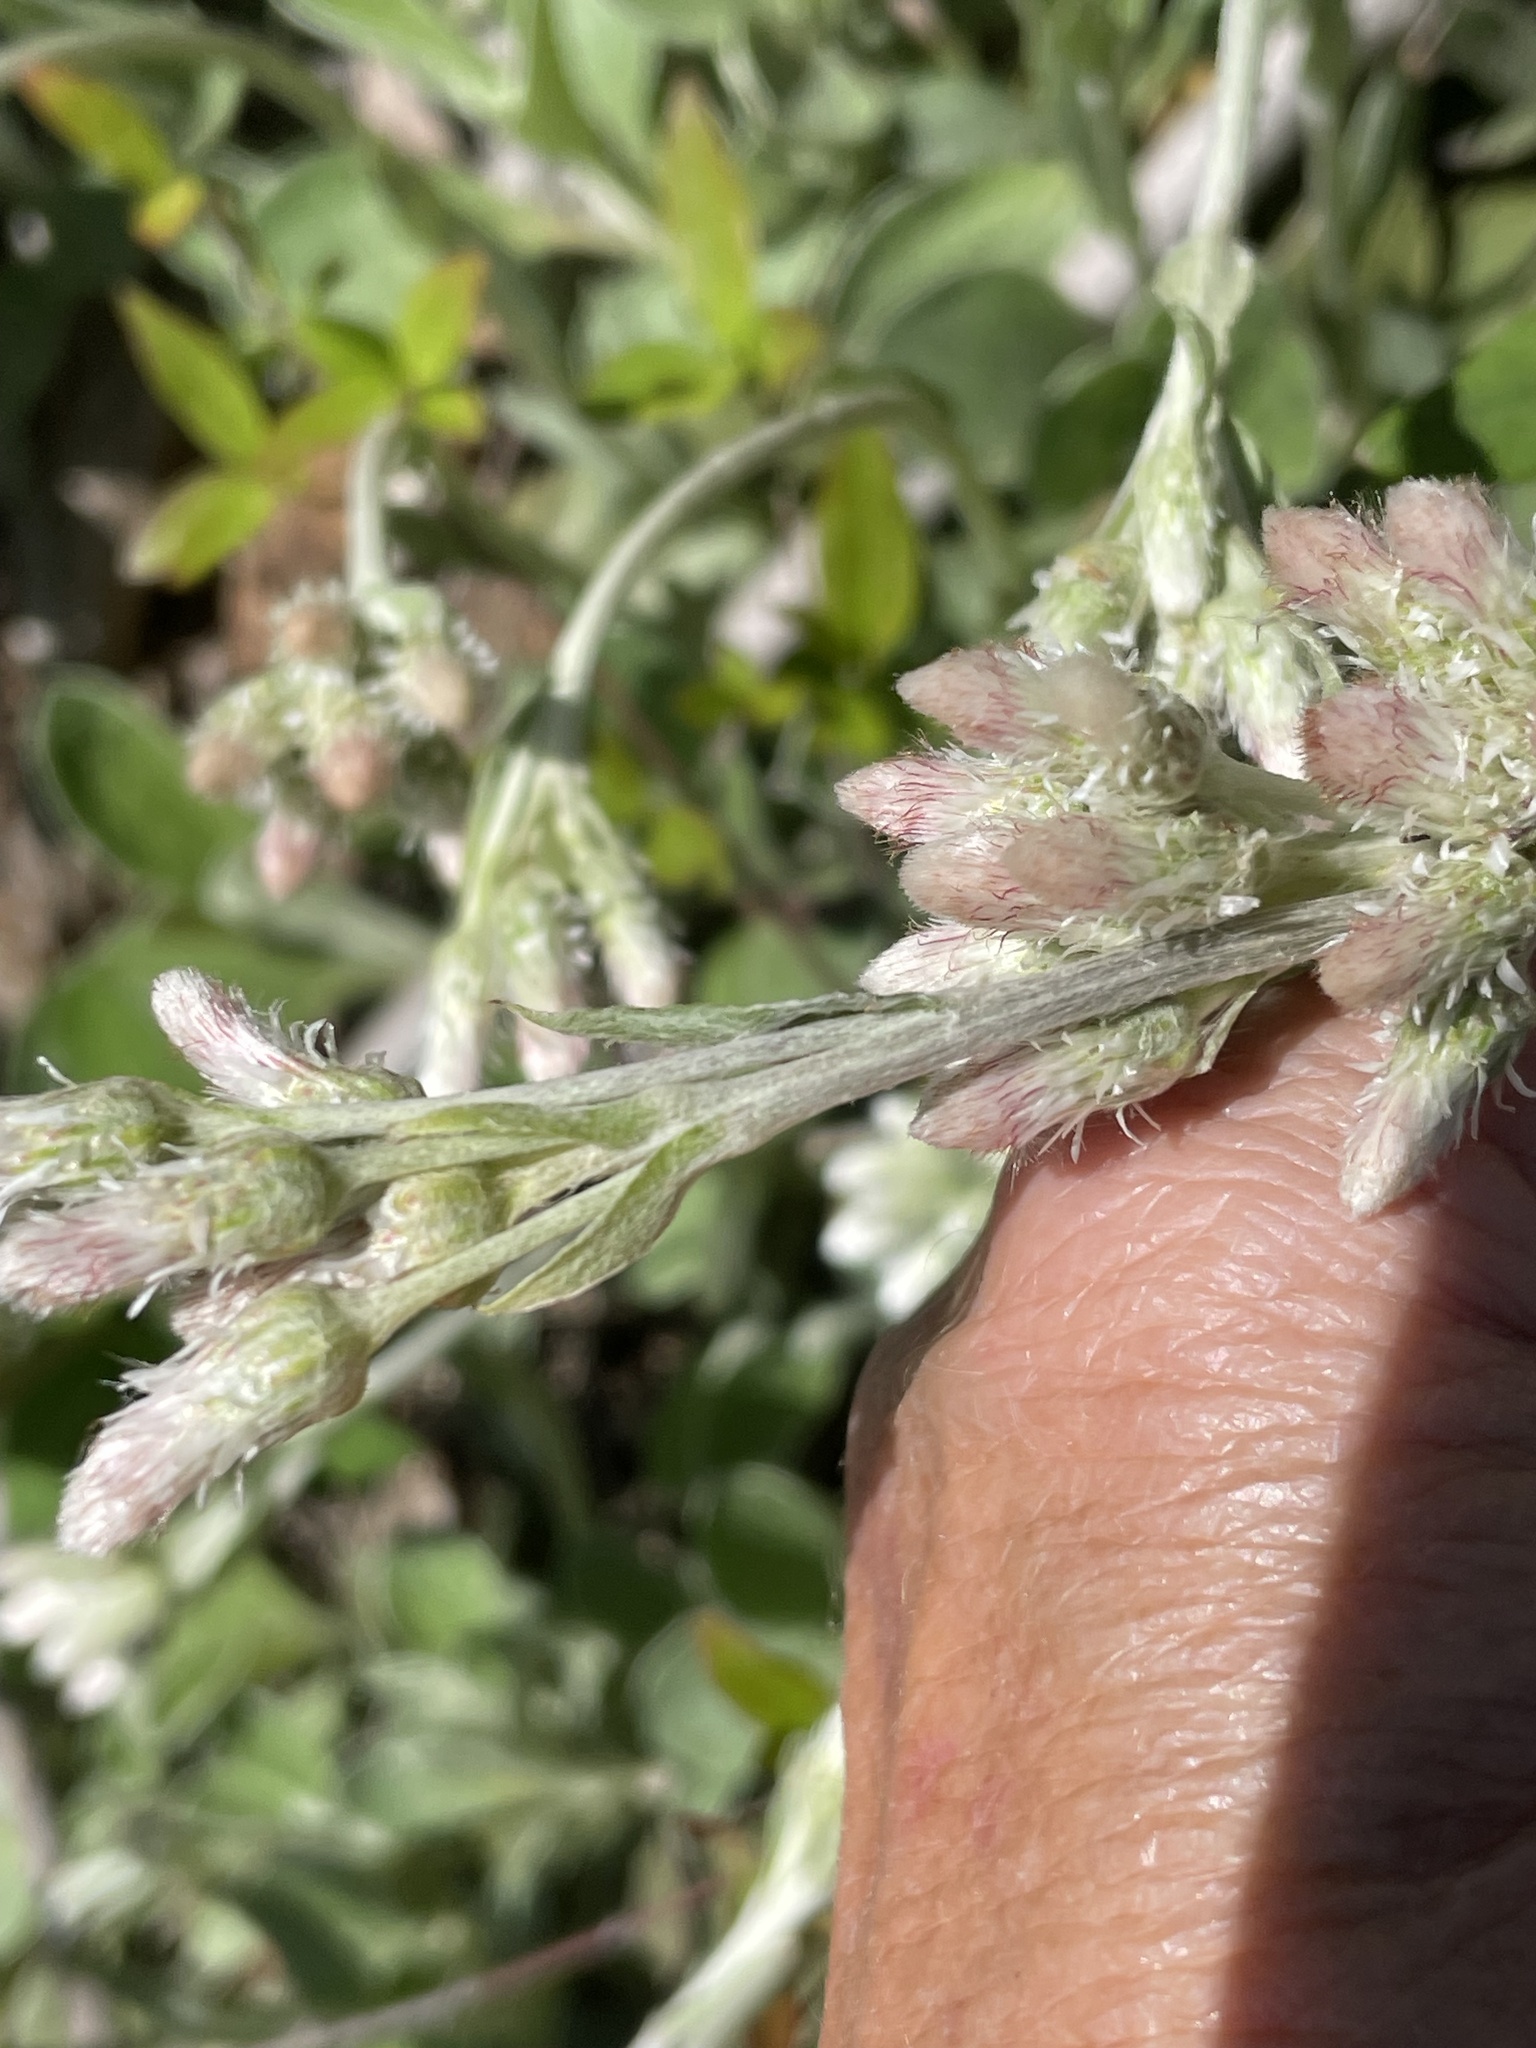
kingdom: Plantae
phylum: Tracheophyta
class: Magnoliopsida
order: Asterales
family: Asteraceae
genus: Antennaria
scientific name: Antennaria parlinii
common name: Parlin's pussytoes
